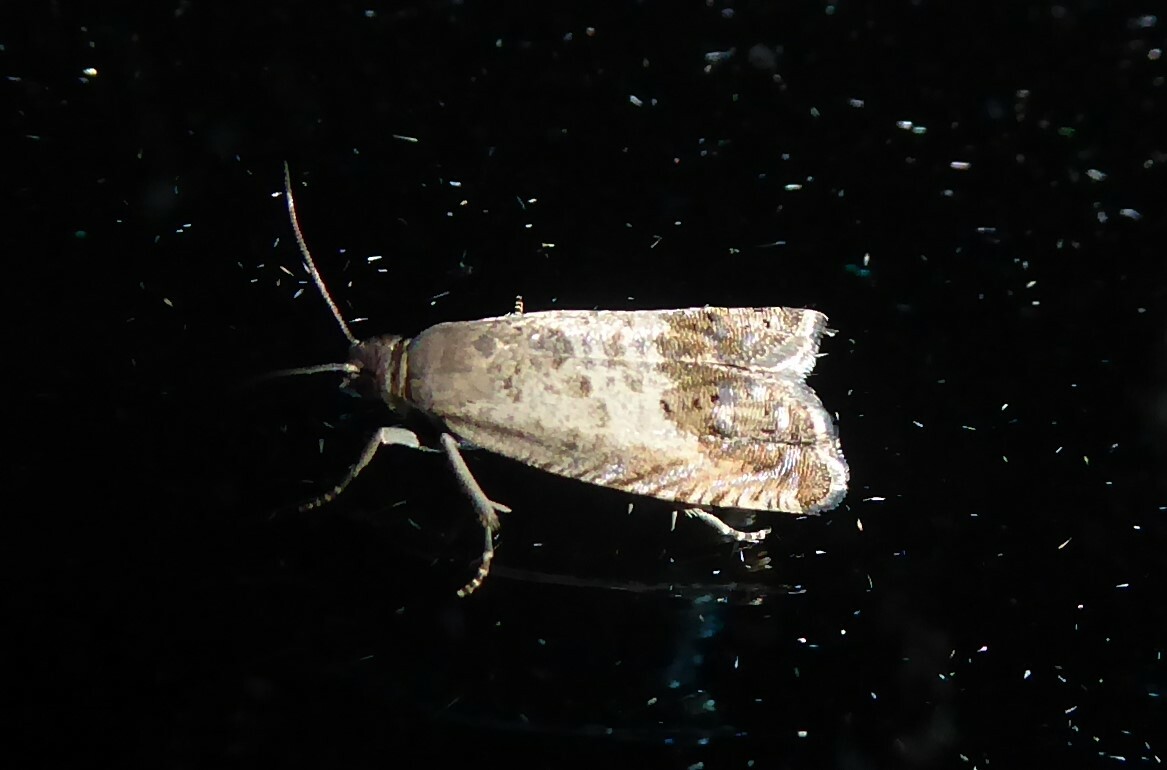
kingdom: Animalia
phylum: Arthropoda
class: Insecta
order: Lepidoptera
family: Tortricidae
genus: Cydia
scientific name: Cydia succedana
